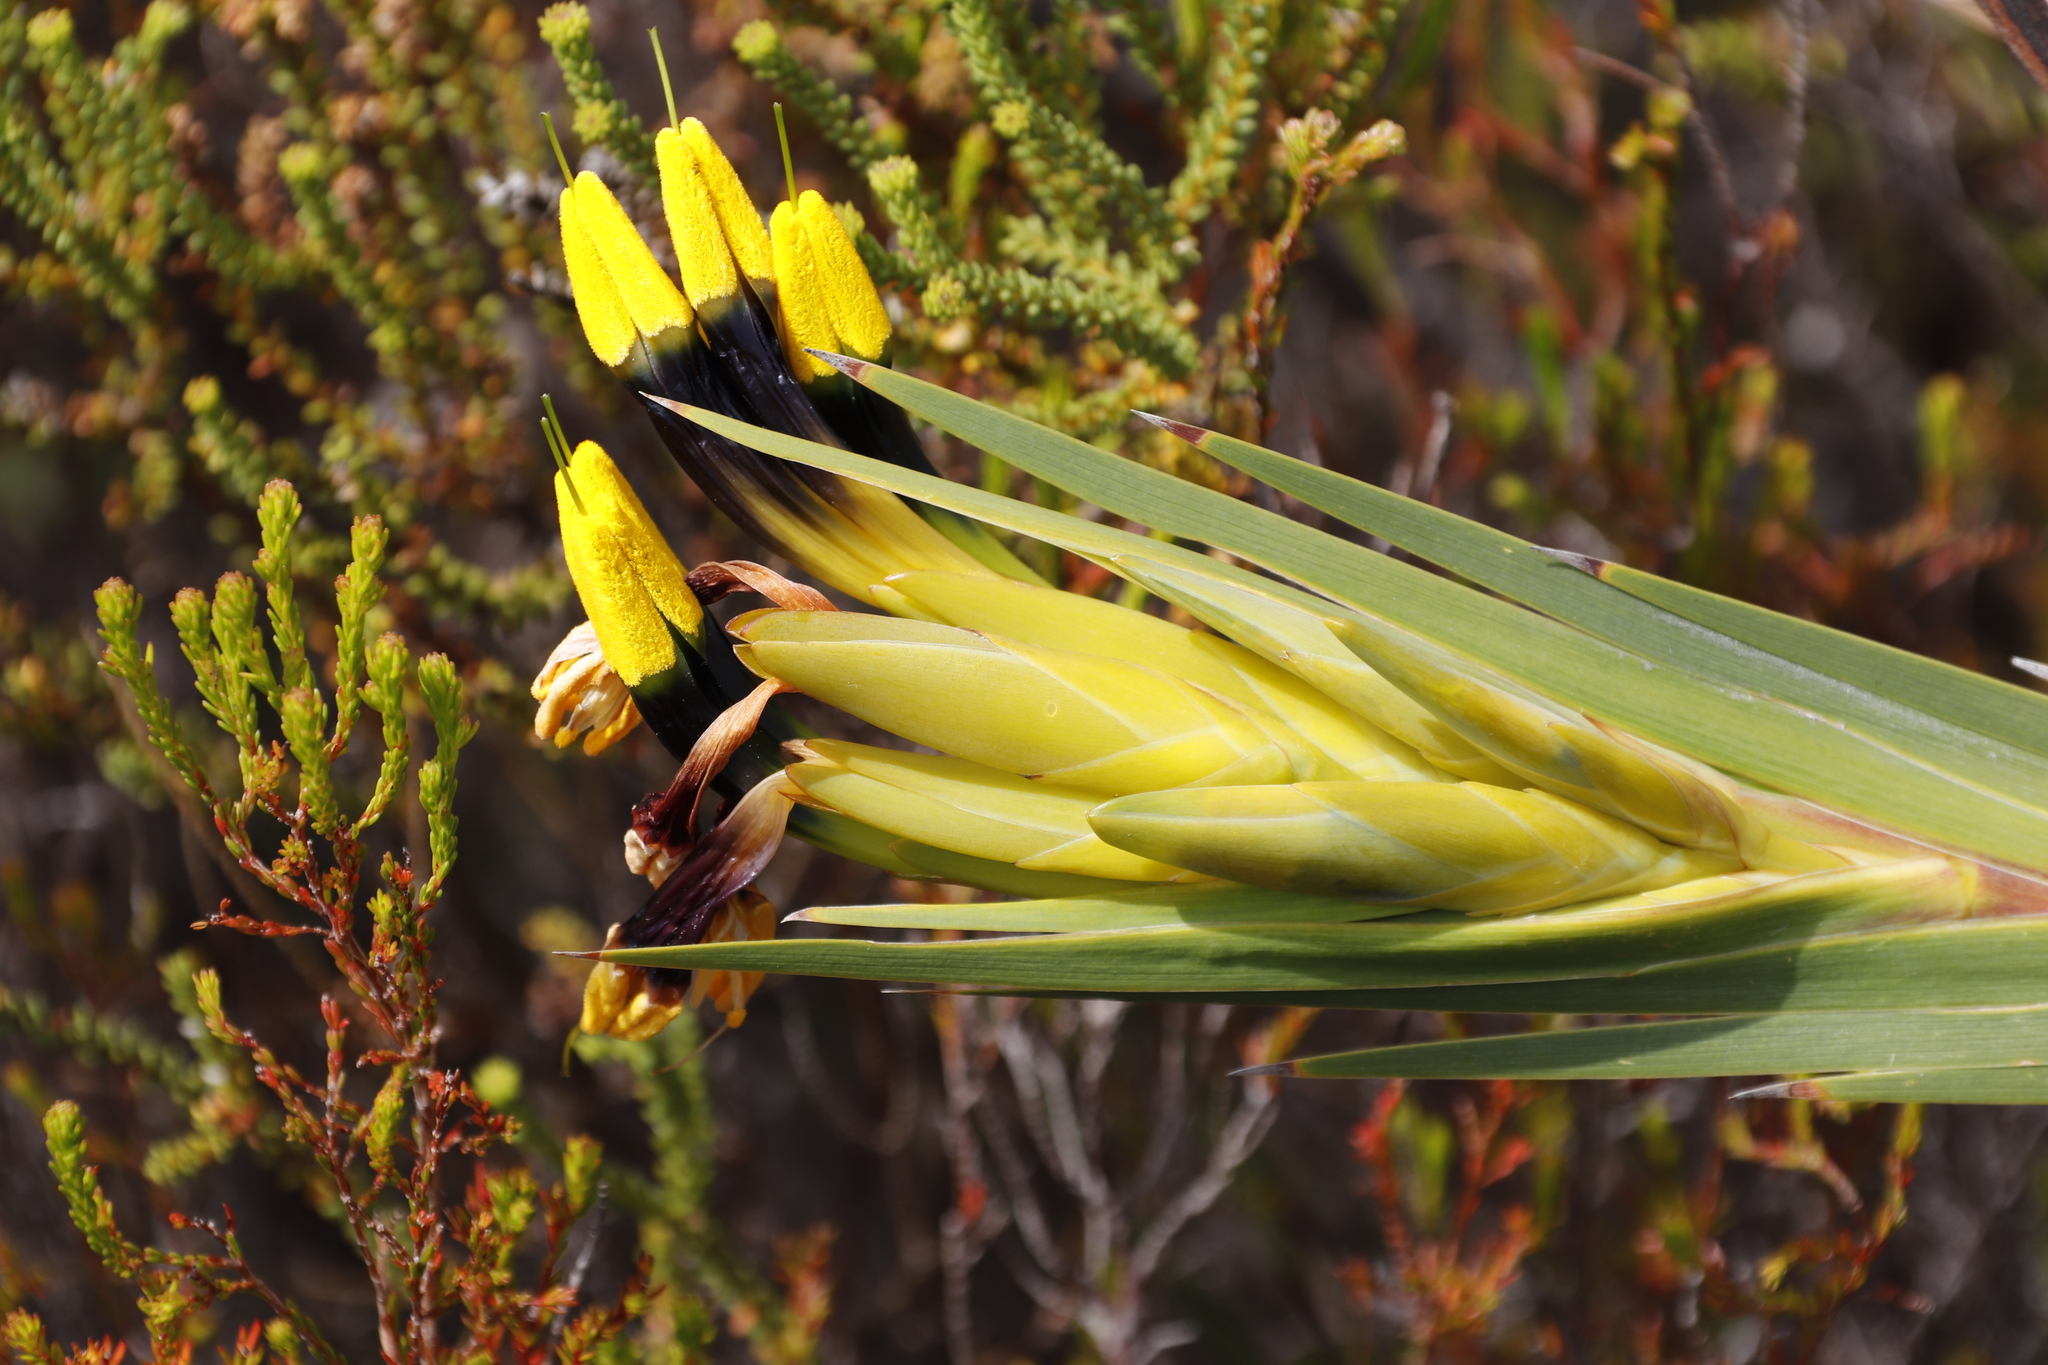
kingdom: Plantae
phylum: Tracheophyta
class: Liliopsida
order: Asparagales
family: Iridaceae
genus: Witsenia
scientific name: Witsenia maura
